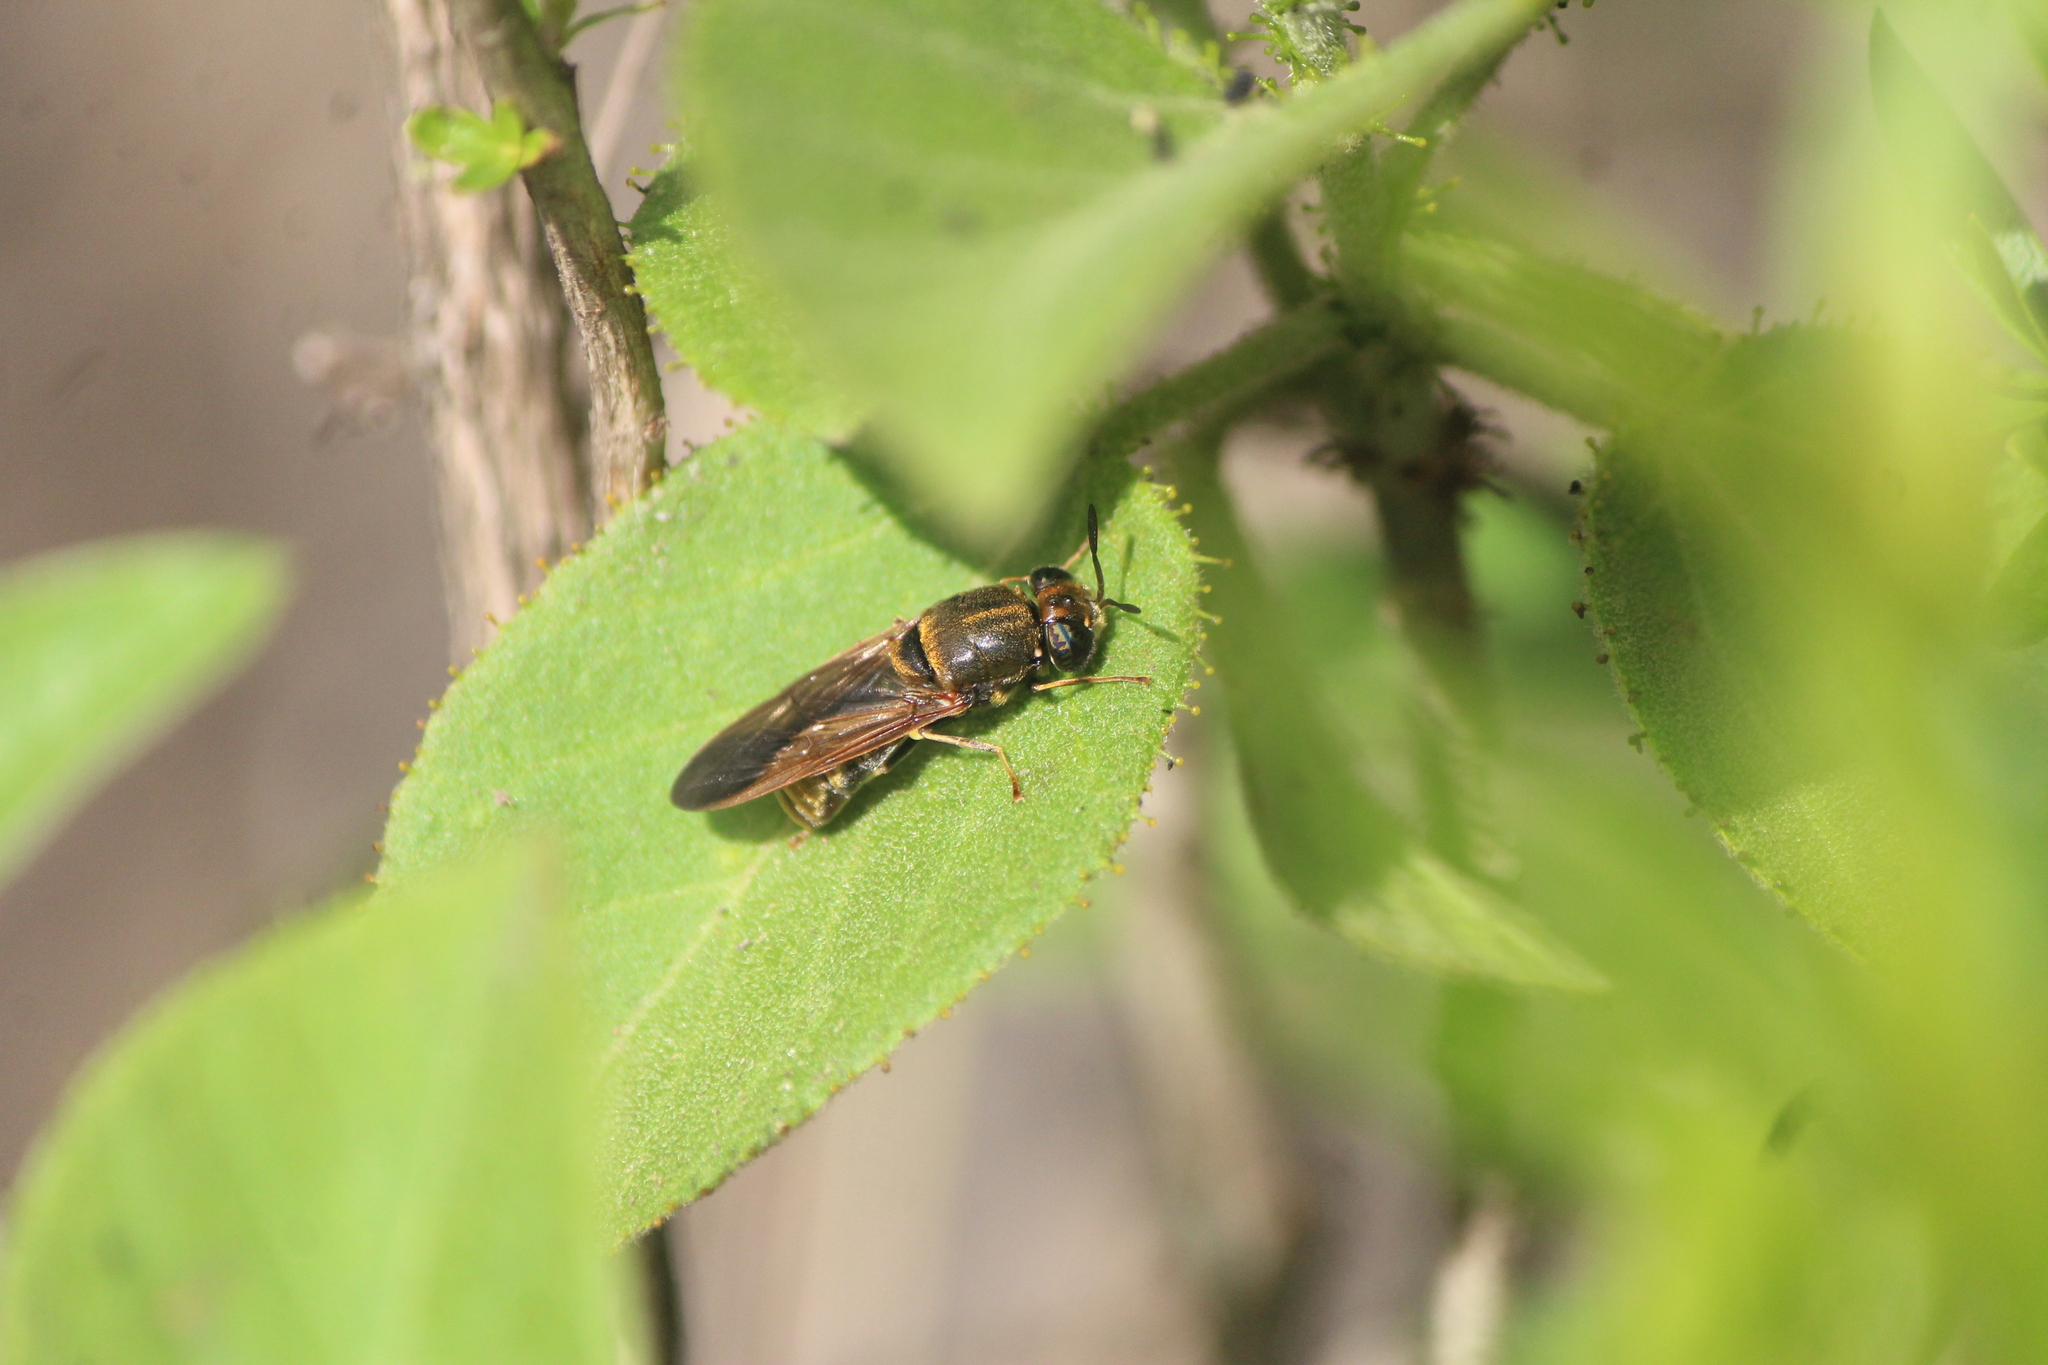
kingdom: Animalia
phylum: Arthropoda
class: Insecta
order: Diptera
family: Stratiomyidae
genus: Hermetia
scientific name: Hermetia aurata
